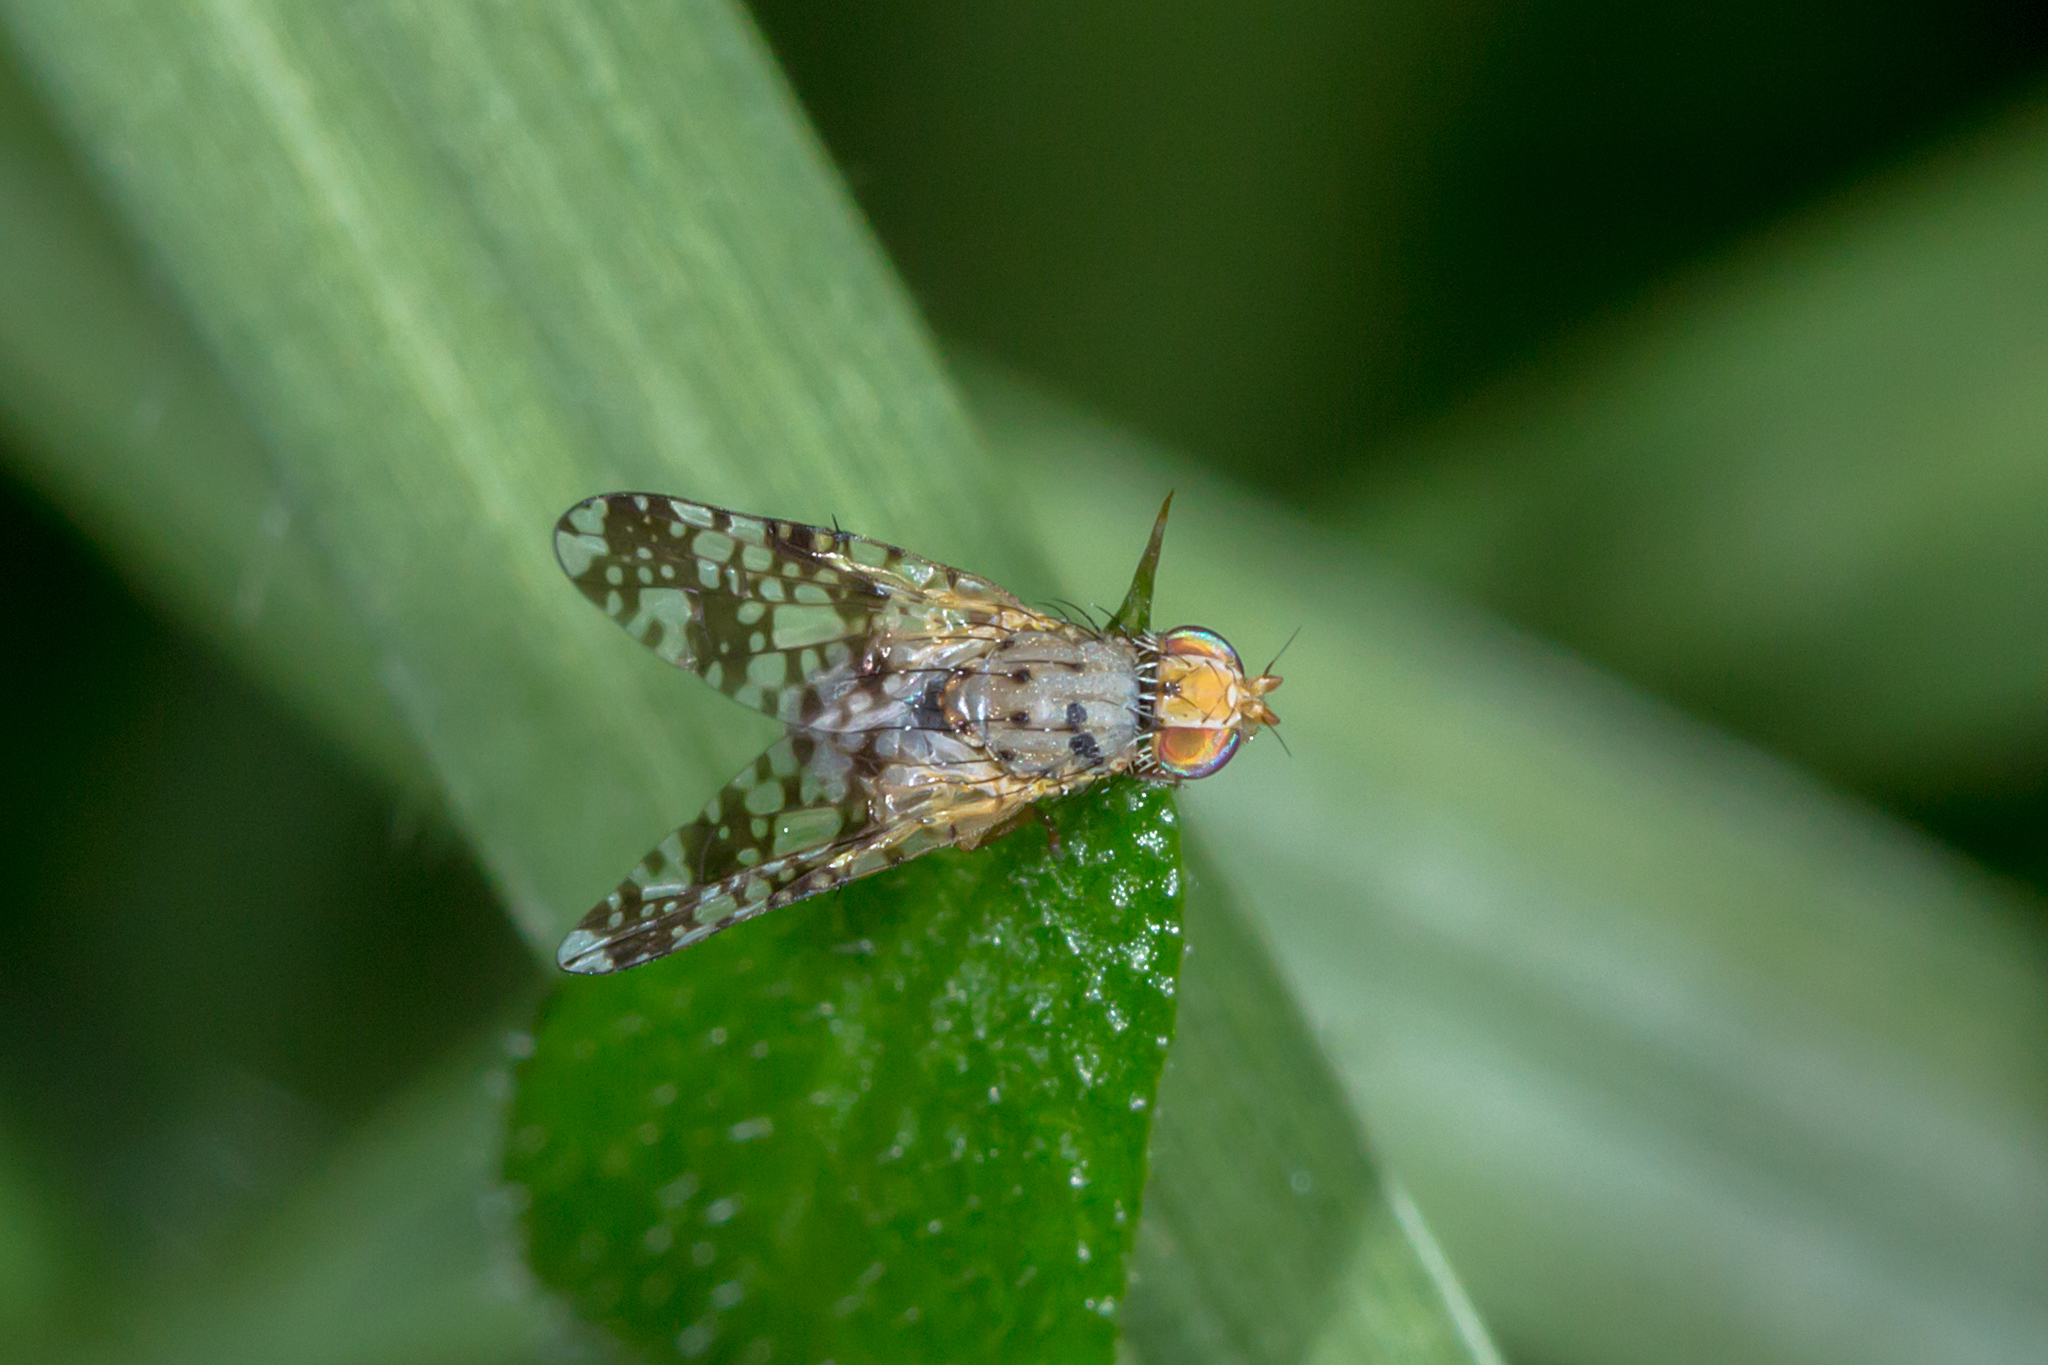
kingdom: Animalia
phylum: Arthropoda
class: Insecta
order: Diptera
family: Tephritidae
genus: Austrotephritis
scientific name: Austrotephritis
